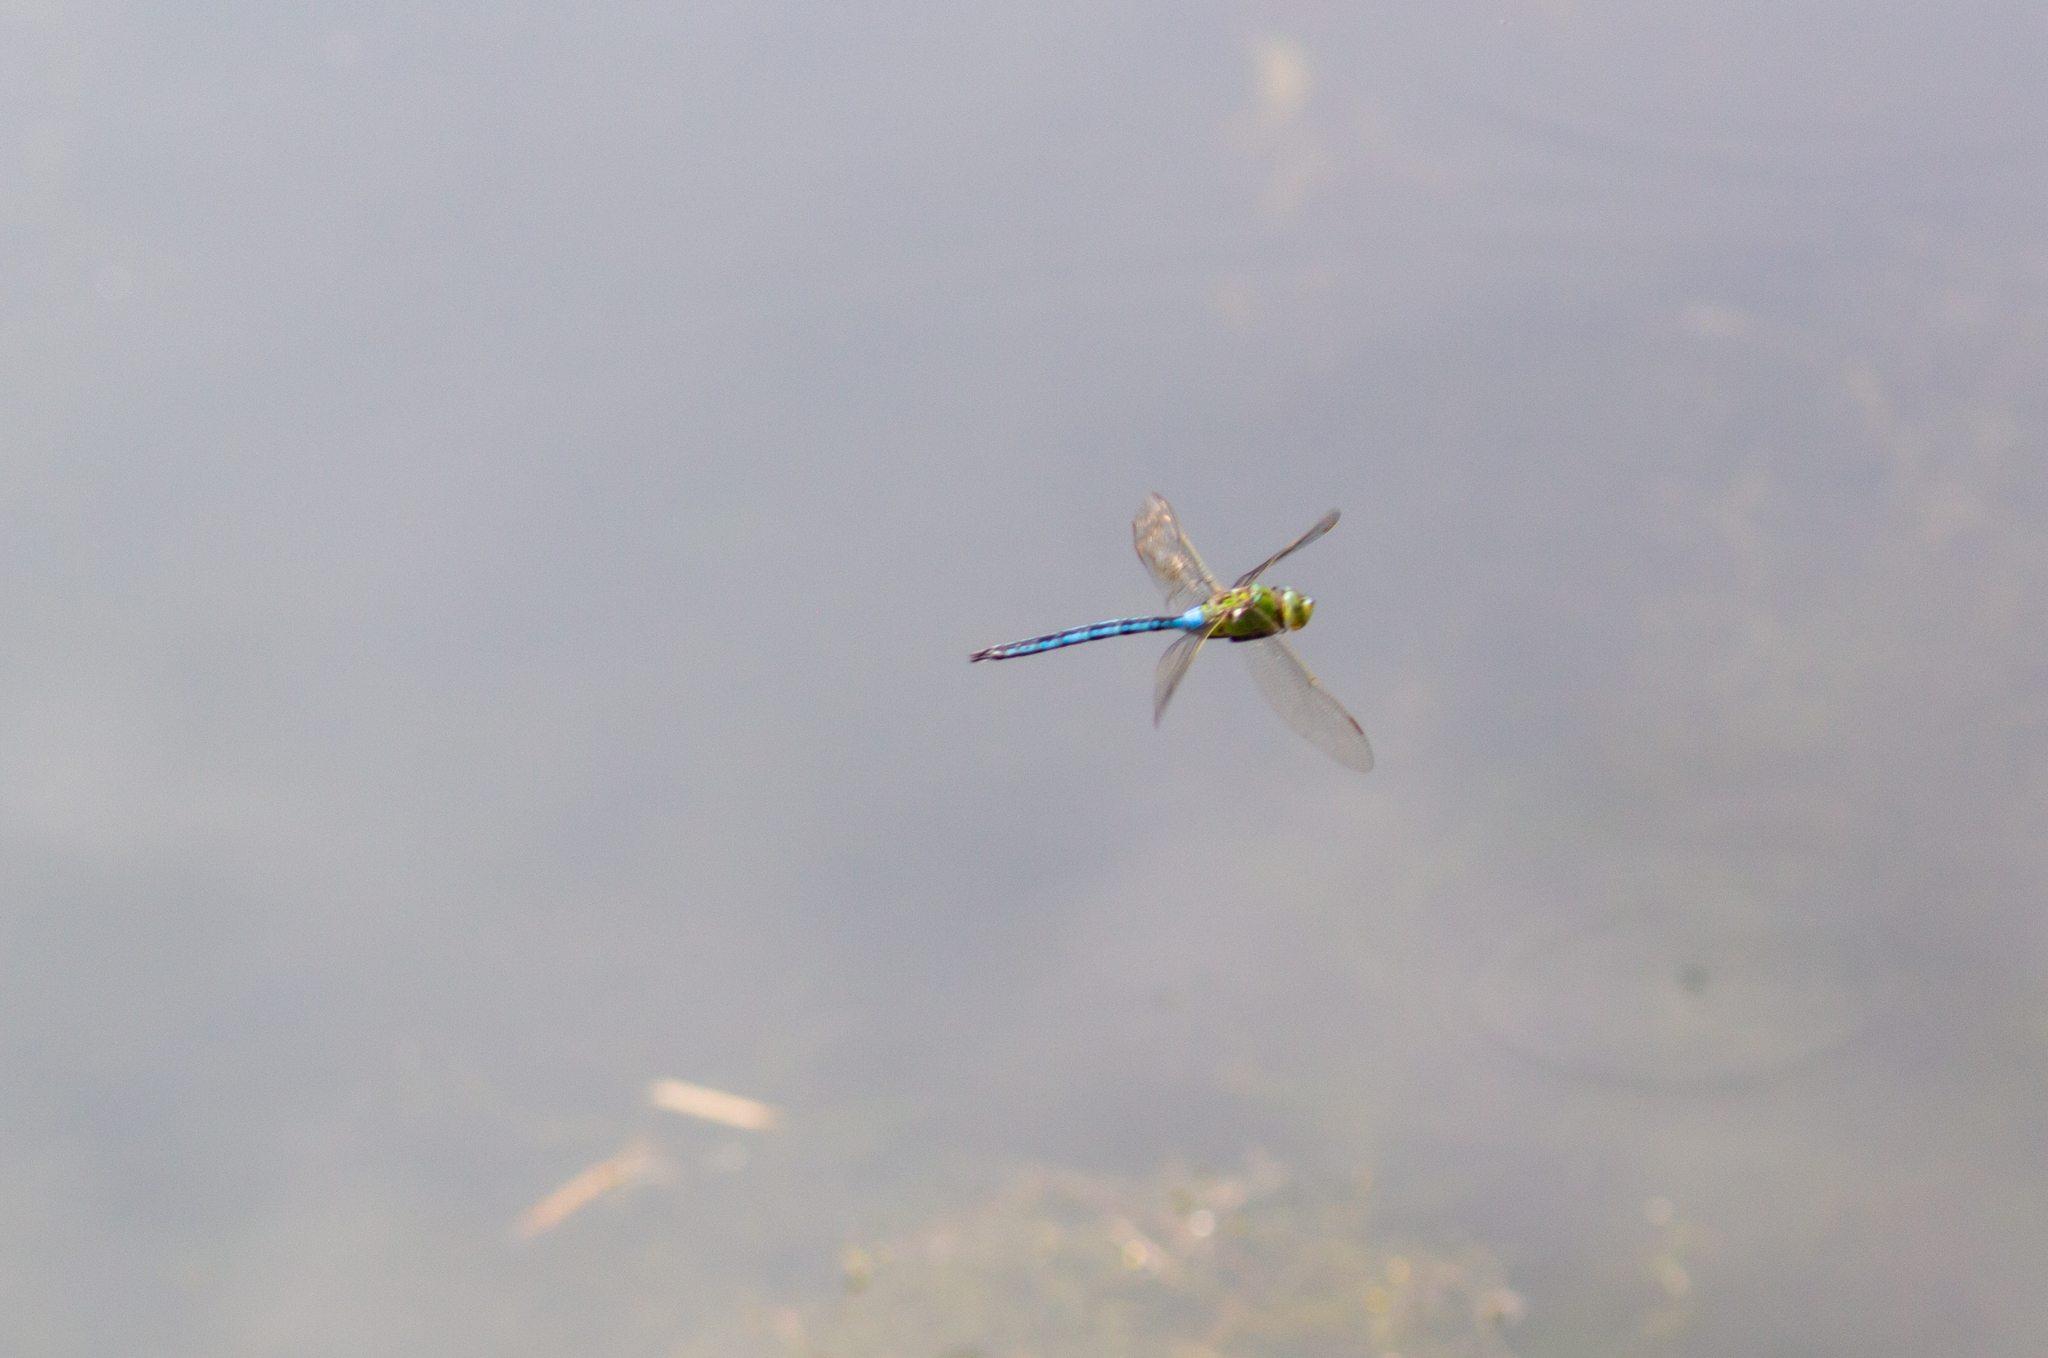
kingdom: Animalia
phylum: Arthropoda
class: Insecta
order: Odonata
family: Aeshnidae
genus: Anax
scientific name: Anax imperator
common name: Emperor dragonfly
